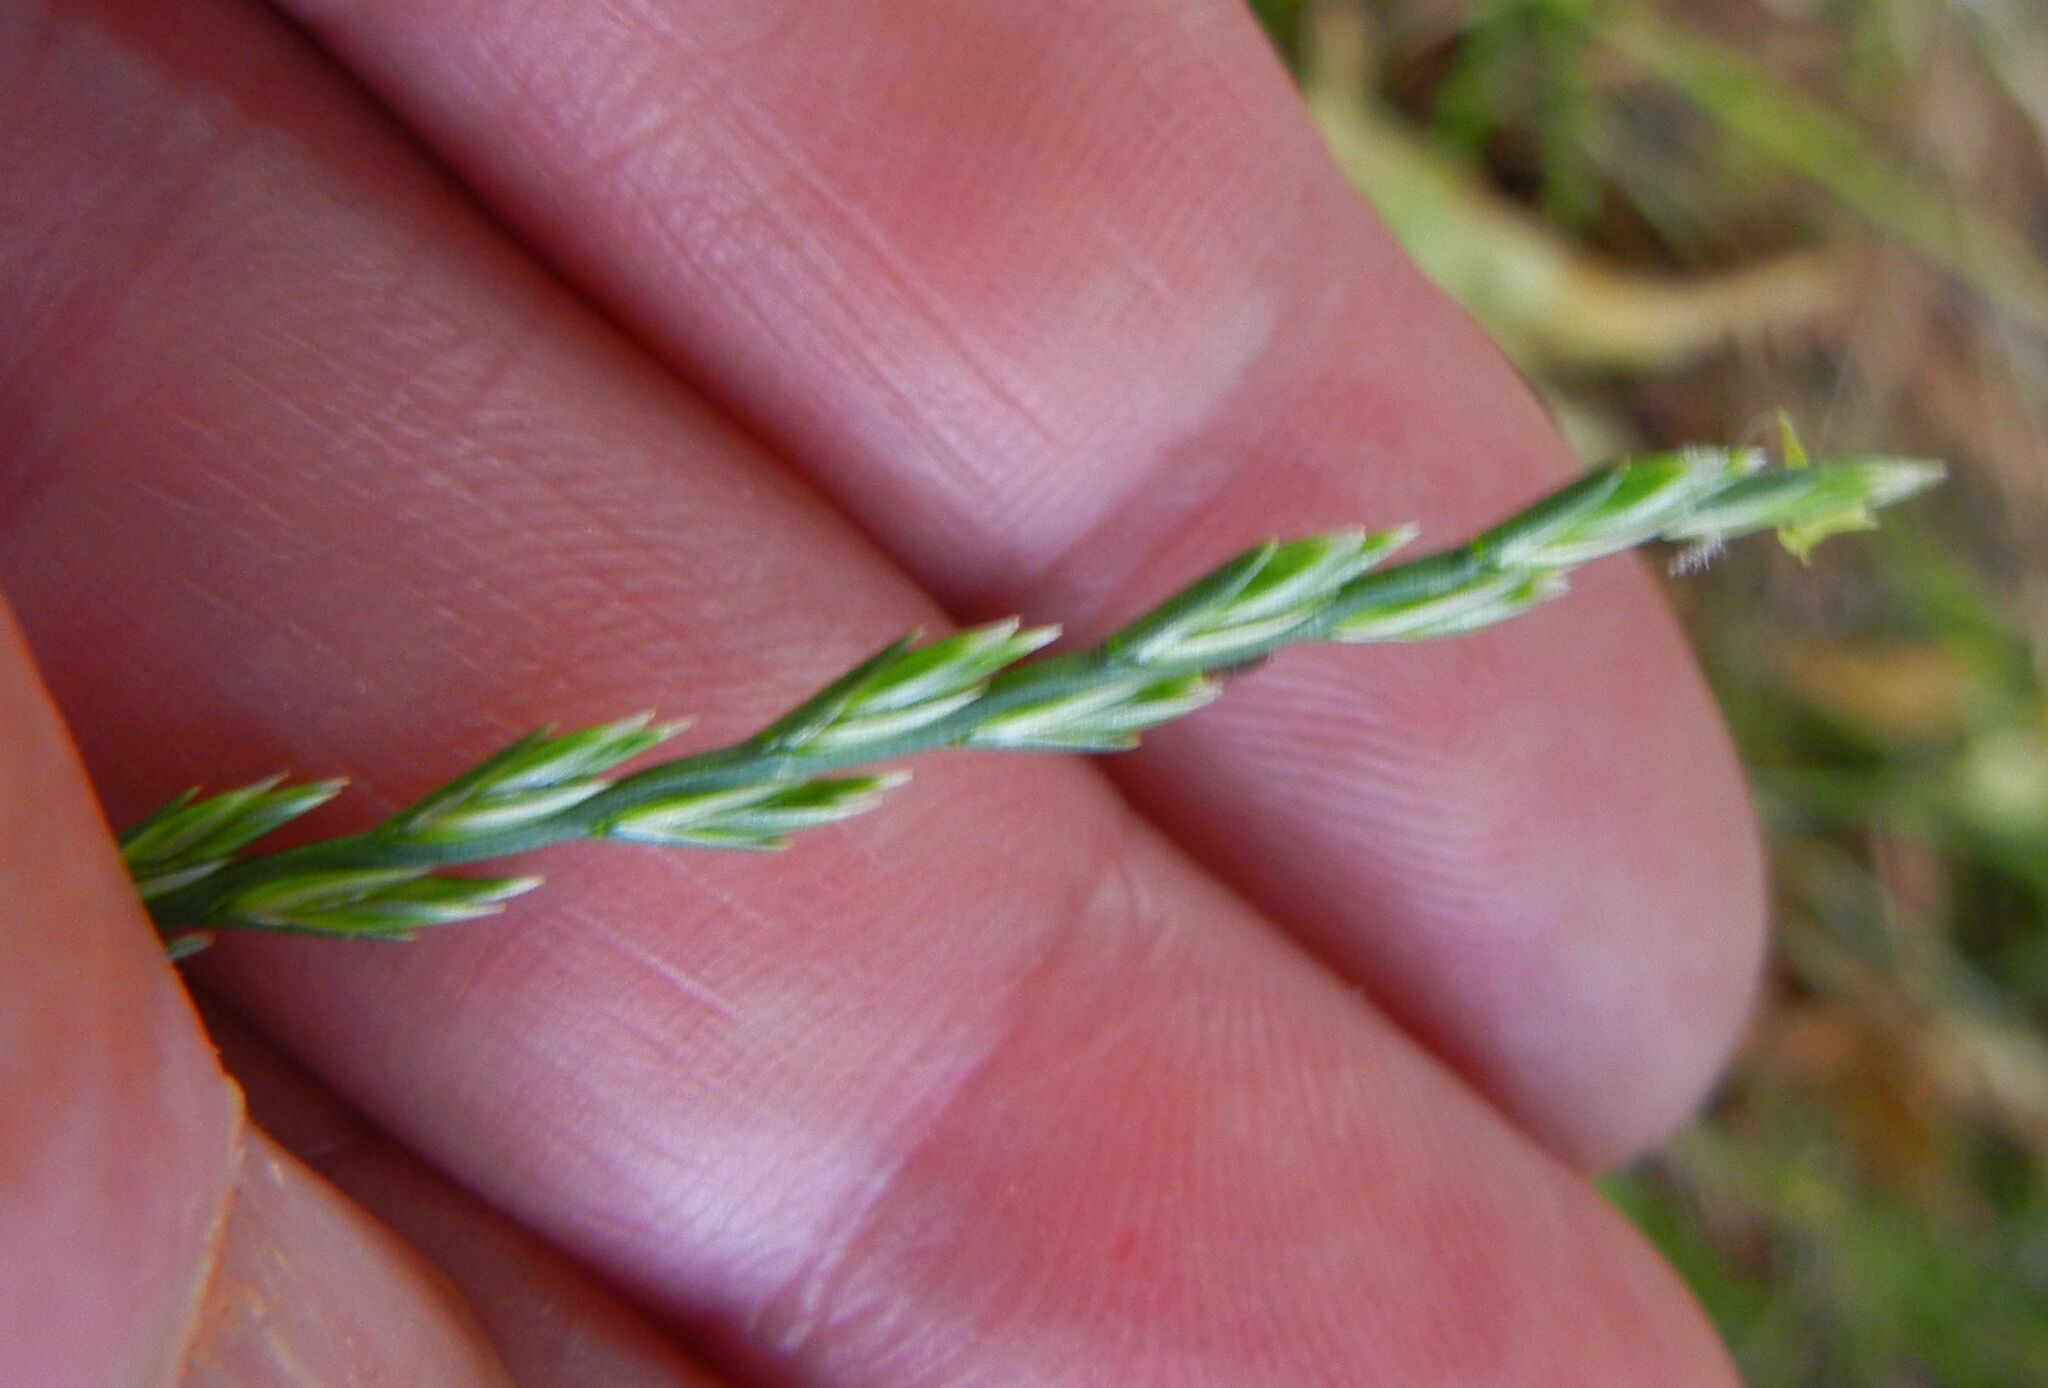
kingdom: Plantae
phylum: Tracheophyta
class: Liliopsida
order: Poales
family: Poaceae
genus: Lolium
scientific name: Lolium perenne
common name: Perennial ryegrass
